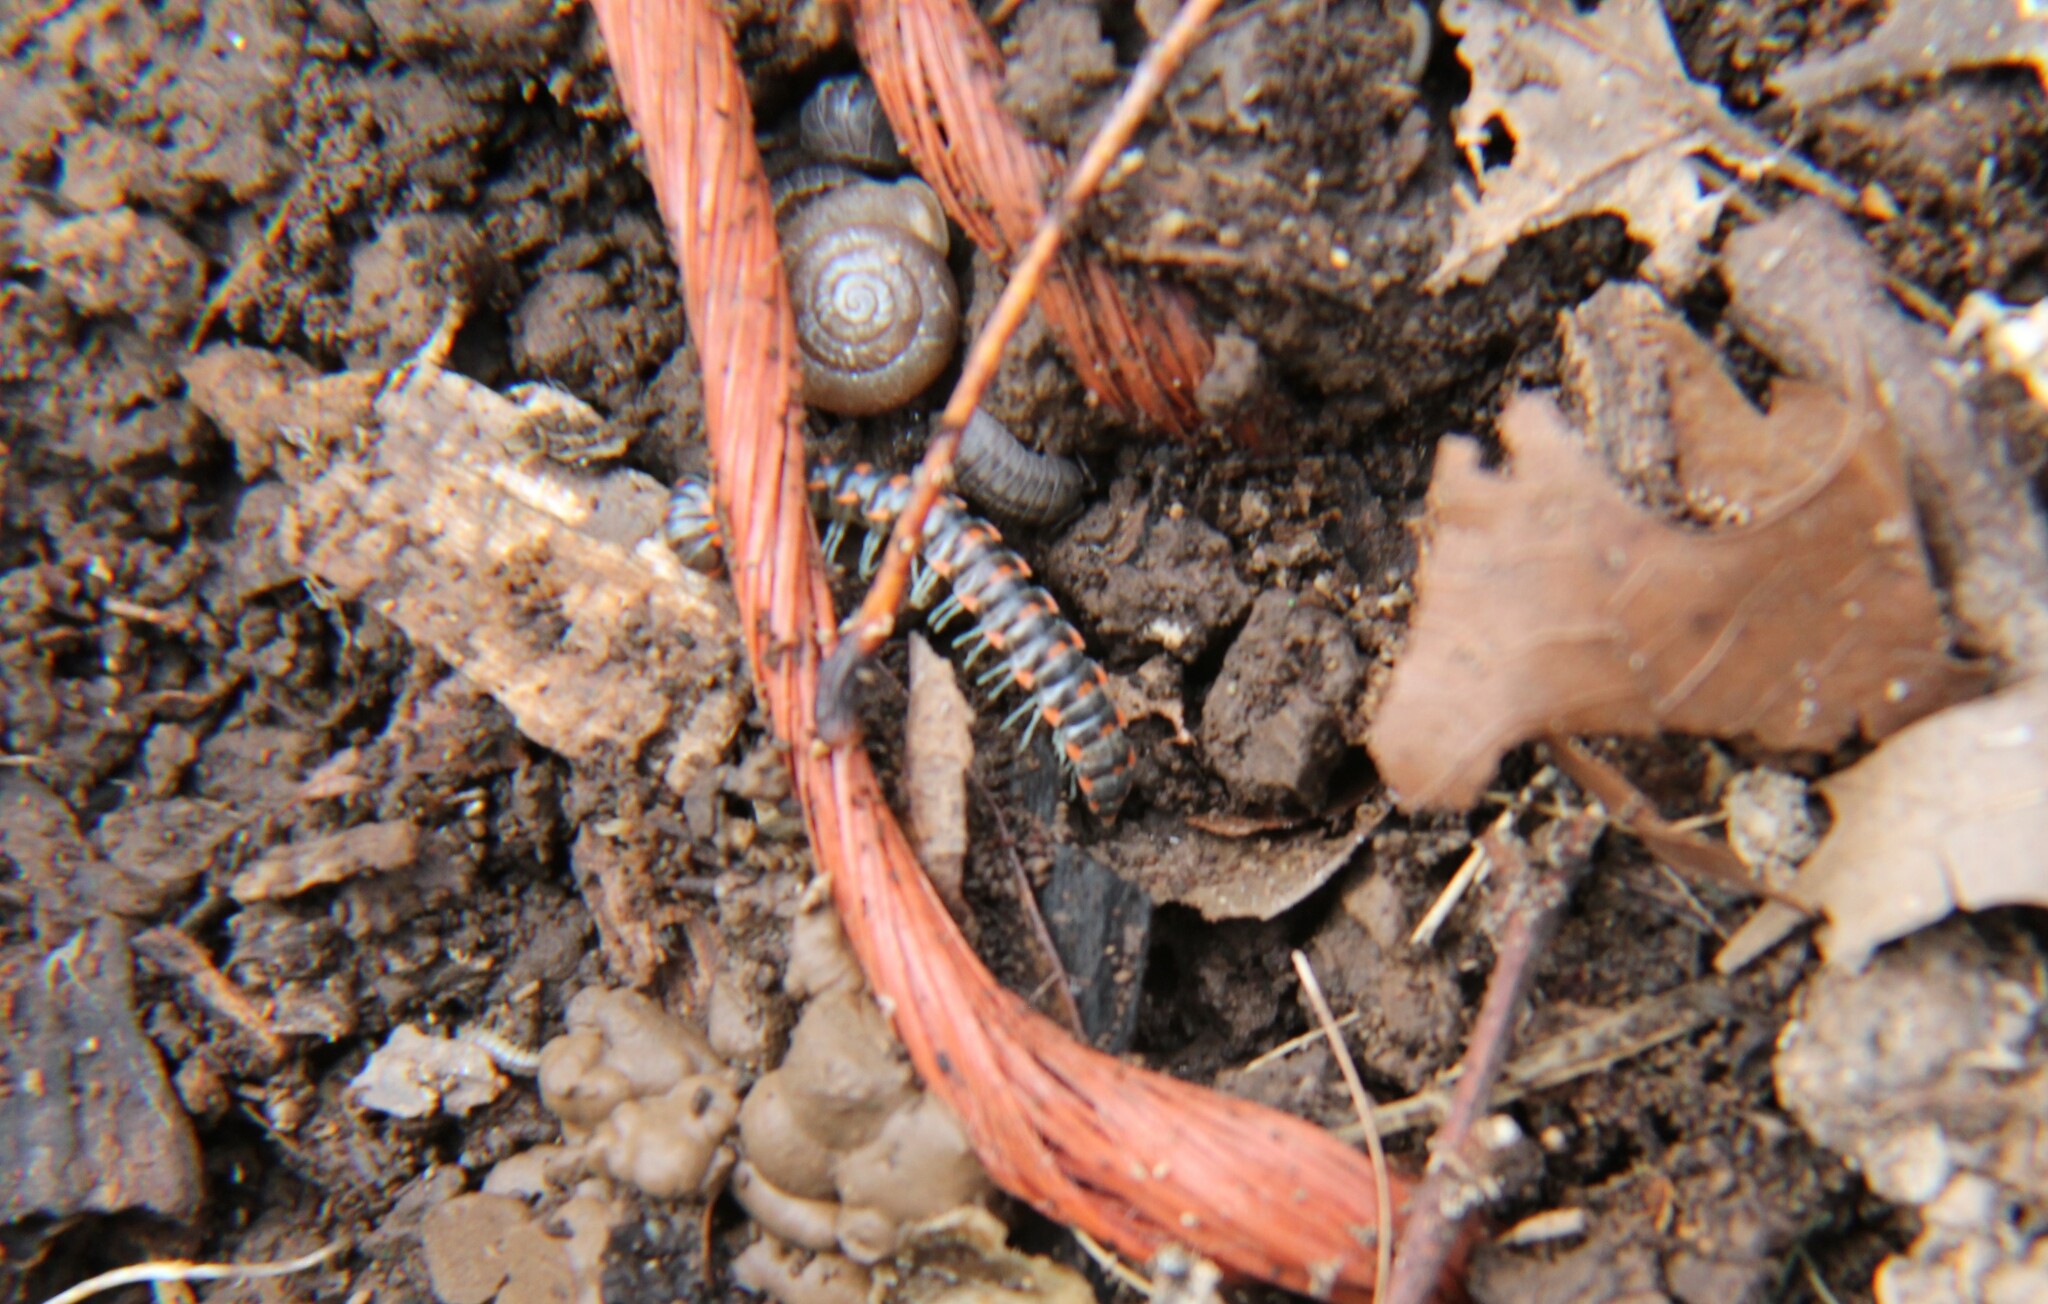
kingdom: Animalia
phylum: Arthropoda
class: Diplopoda
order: Polydesmida
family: Xystodesmidae
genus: Euryurus
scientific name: Euryurus leachii
